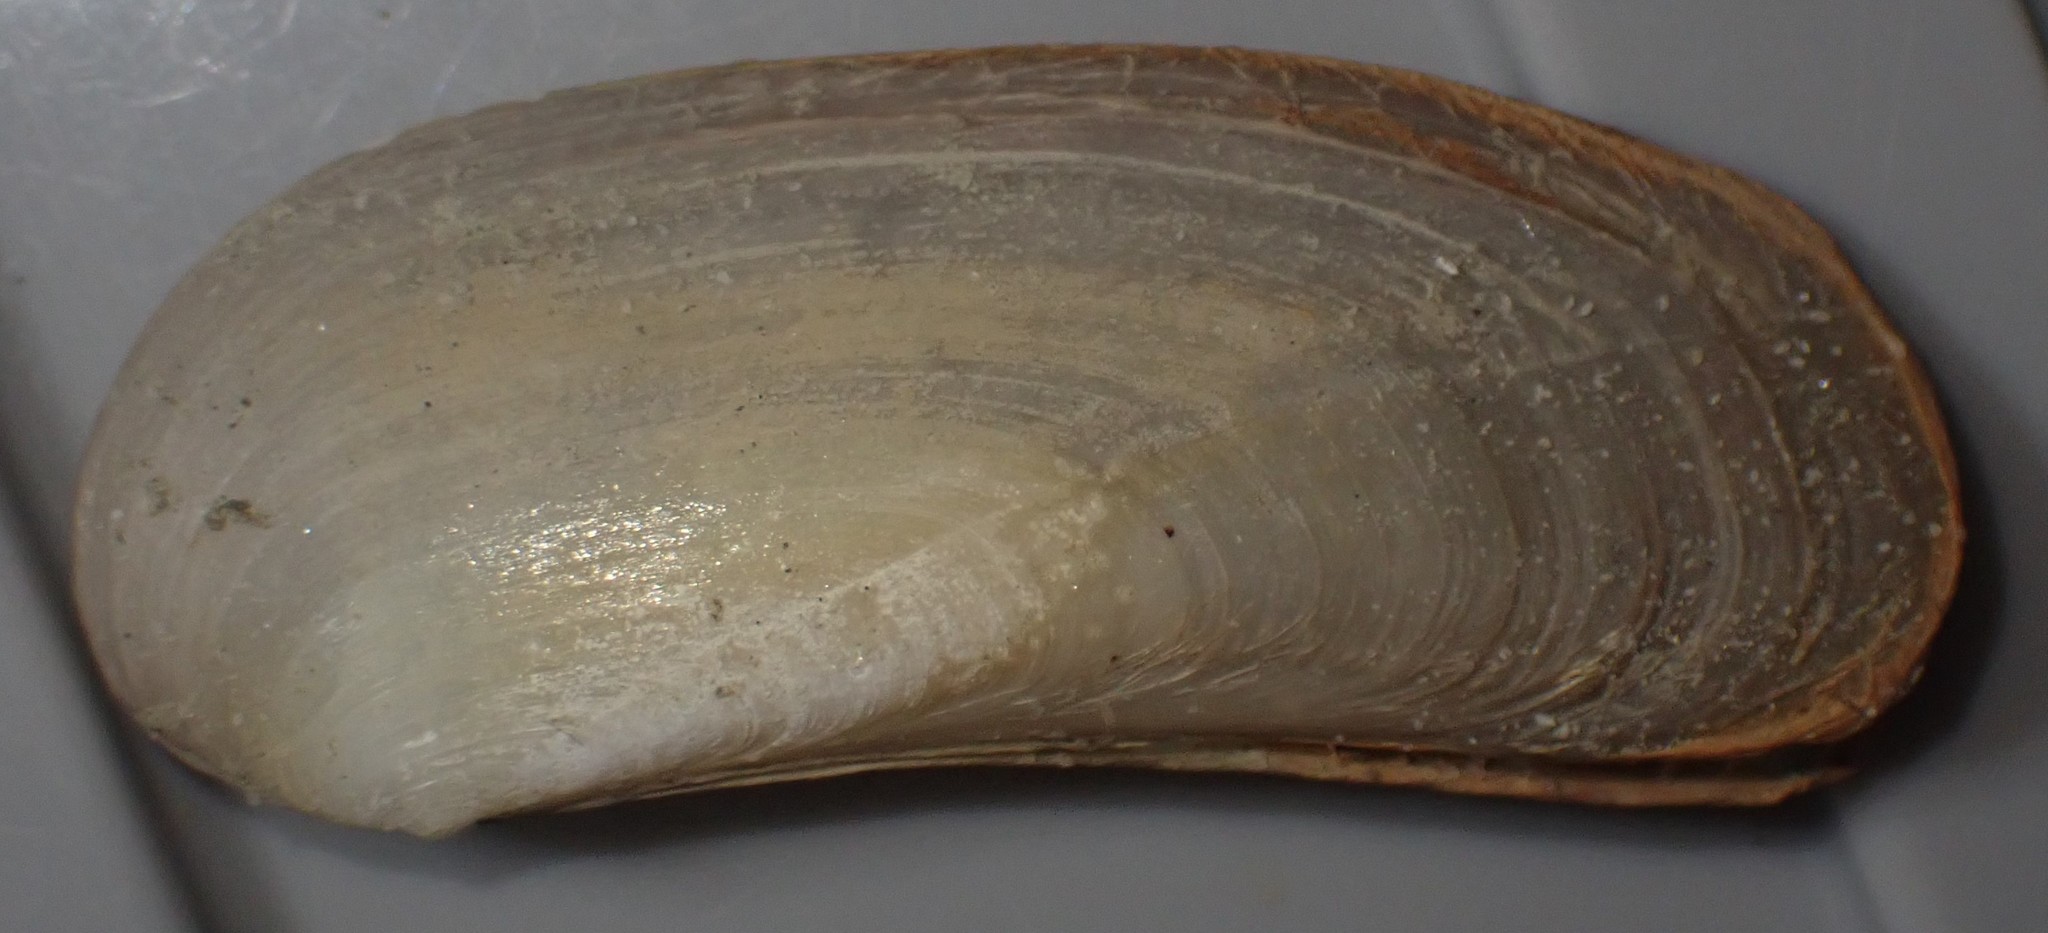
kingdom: Animalia
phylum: Mollusca
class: Bivalvia
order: Venerida
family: Mactridae
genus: Zenatia
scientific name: Zenatia acinaces
